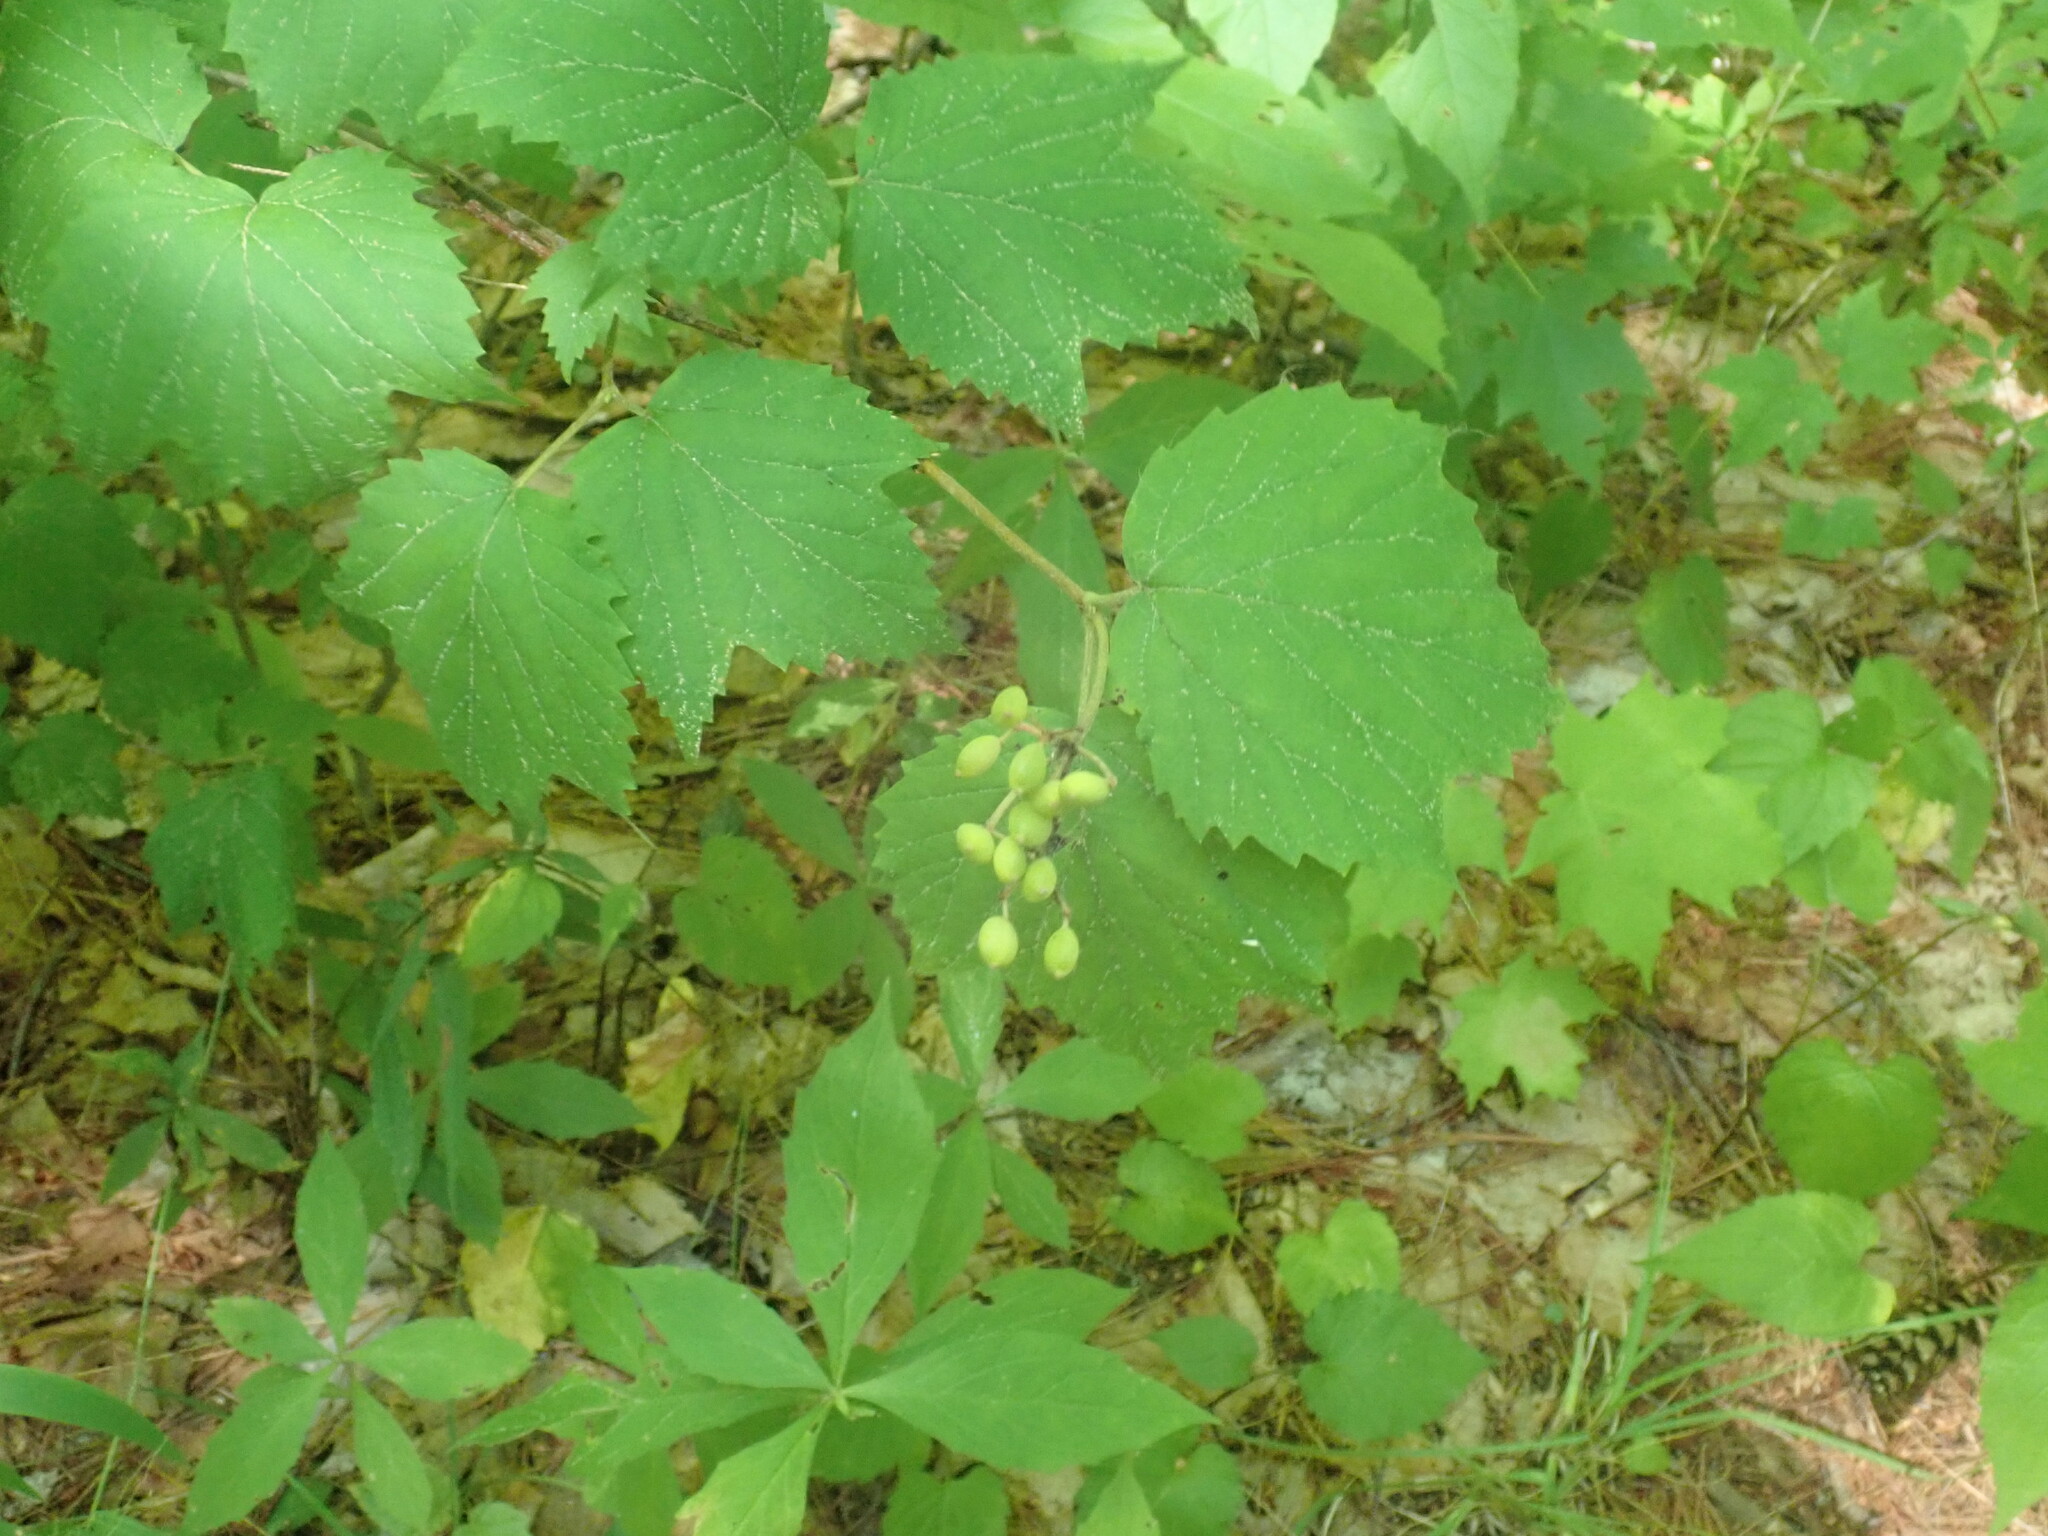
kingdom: Plantae
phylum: Tracheophyta
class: Magnoliopsida
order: Dipsacales
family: Viburnaceae
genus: Viburnum
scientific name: Viburnum acerifolium
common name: Dockmackie
